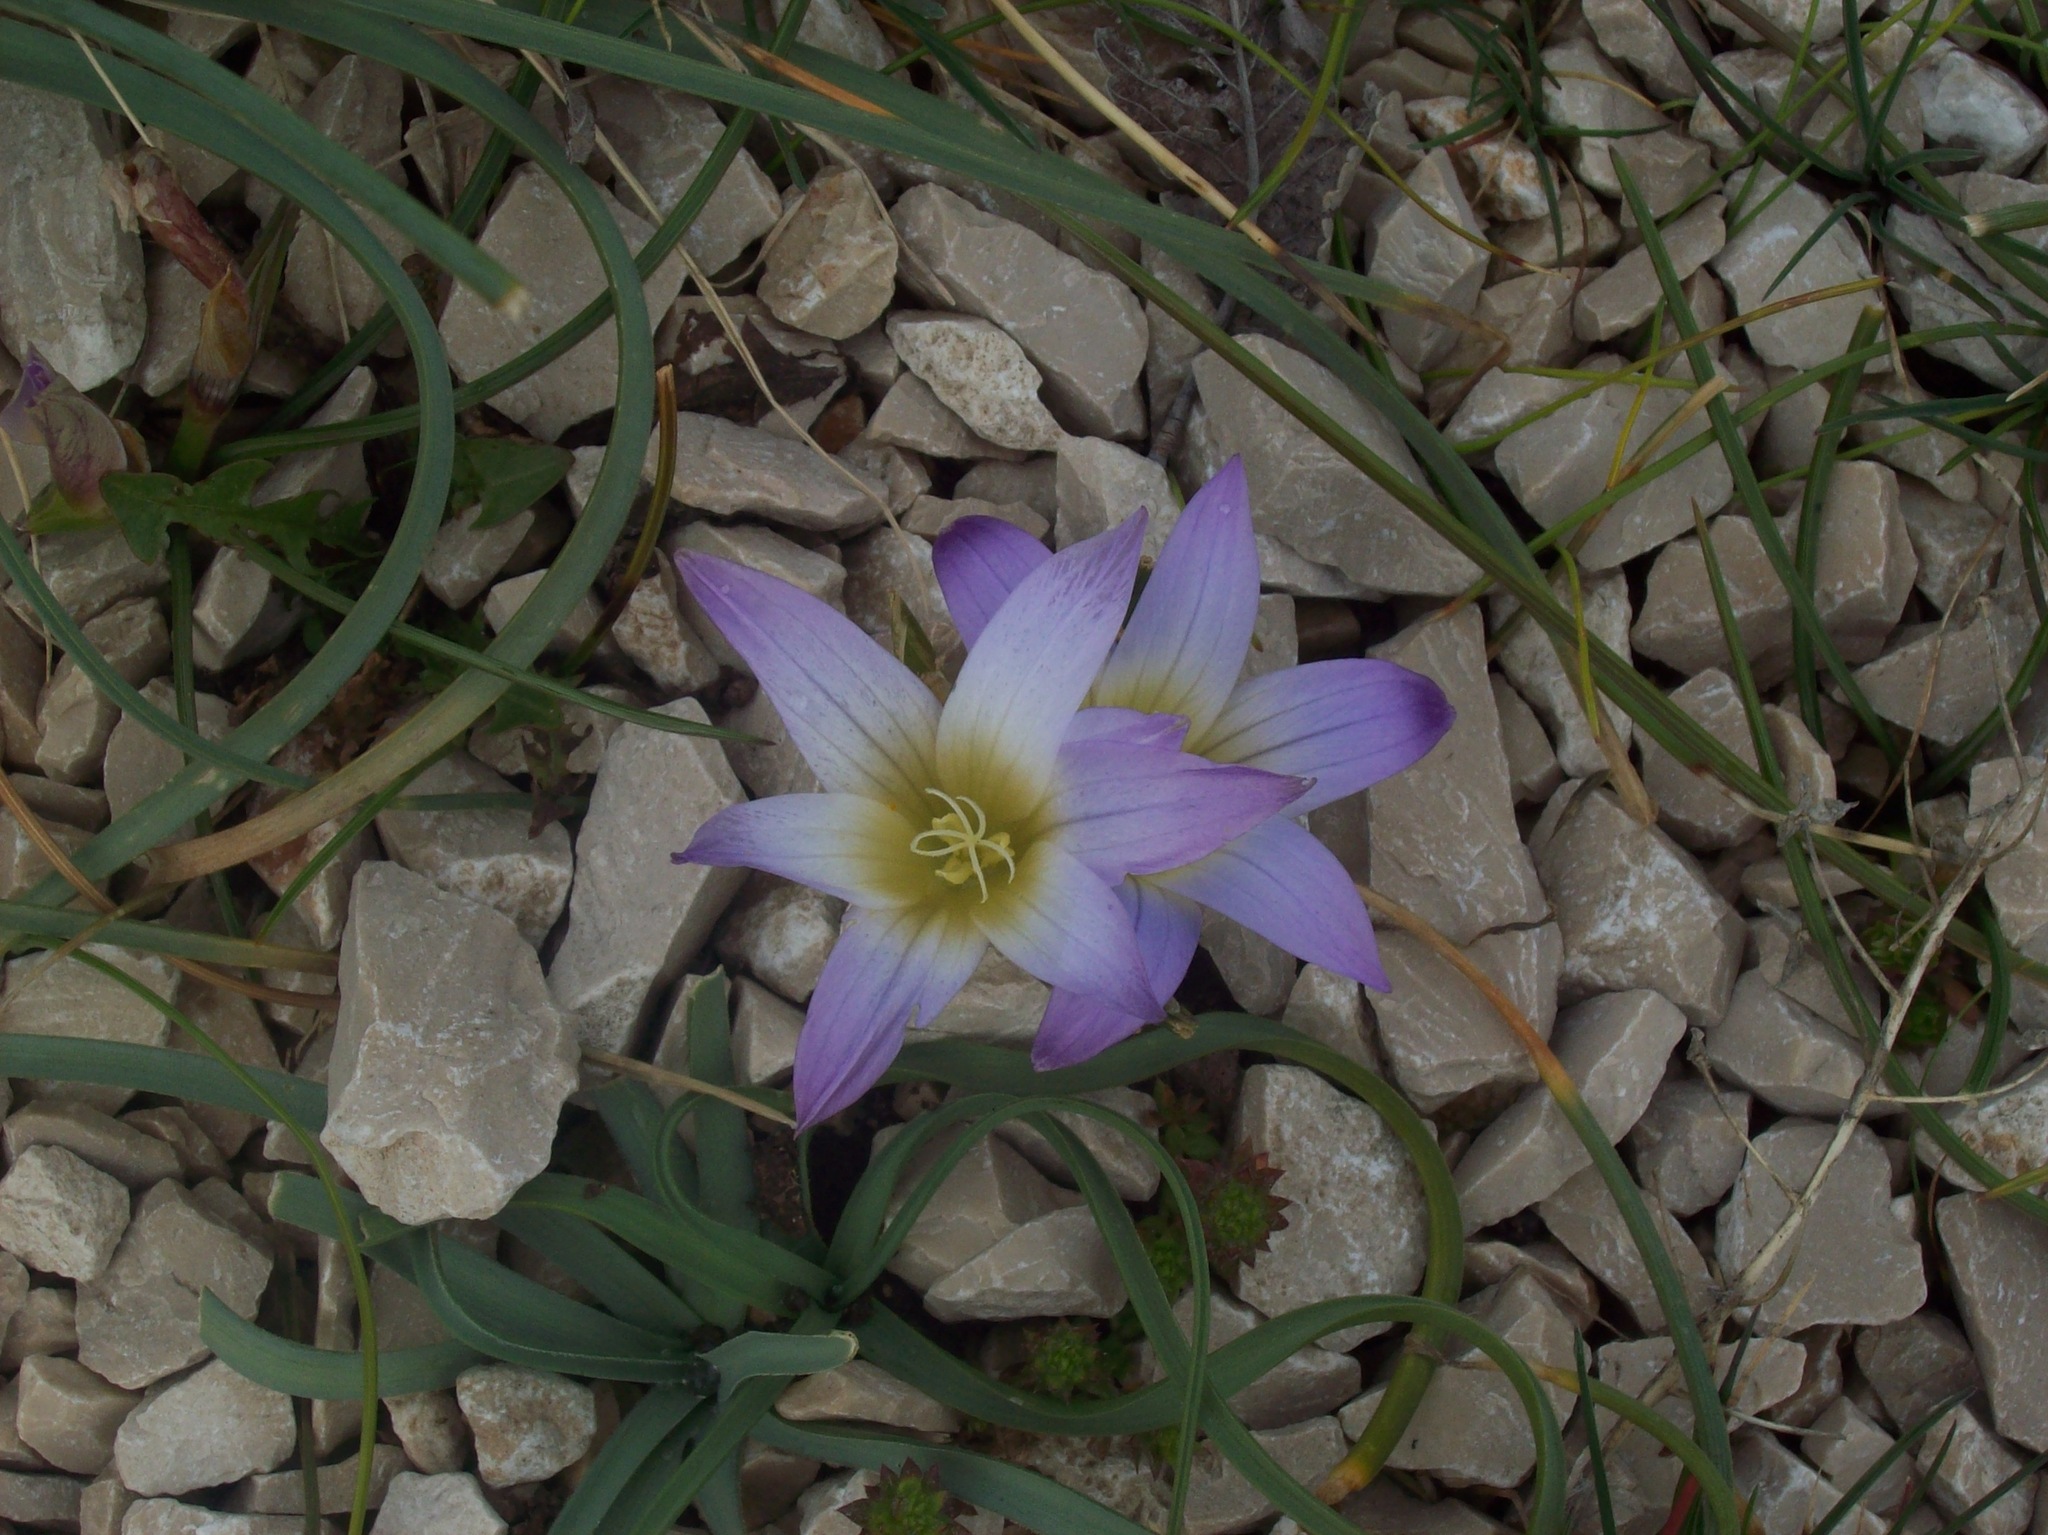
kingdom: Plantae
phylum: Tracheophyta
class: Liliopsida
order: Asparagales
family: Iridaceae
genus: Romulea
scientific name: Romulea bulbocodium
